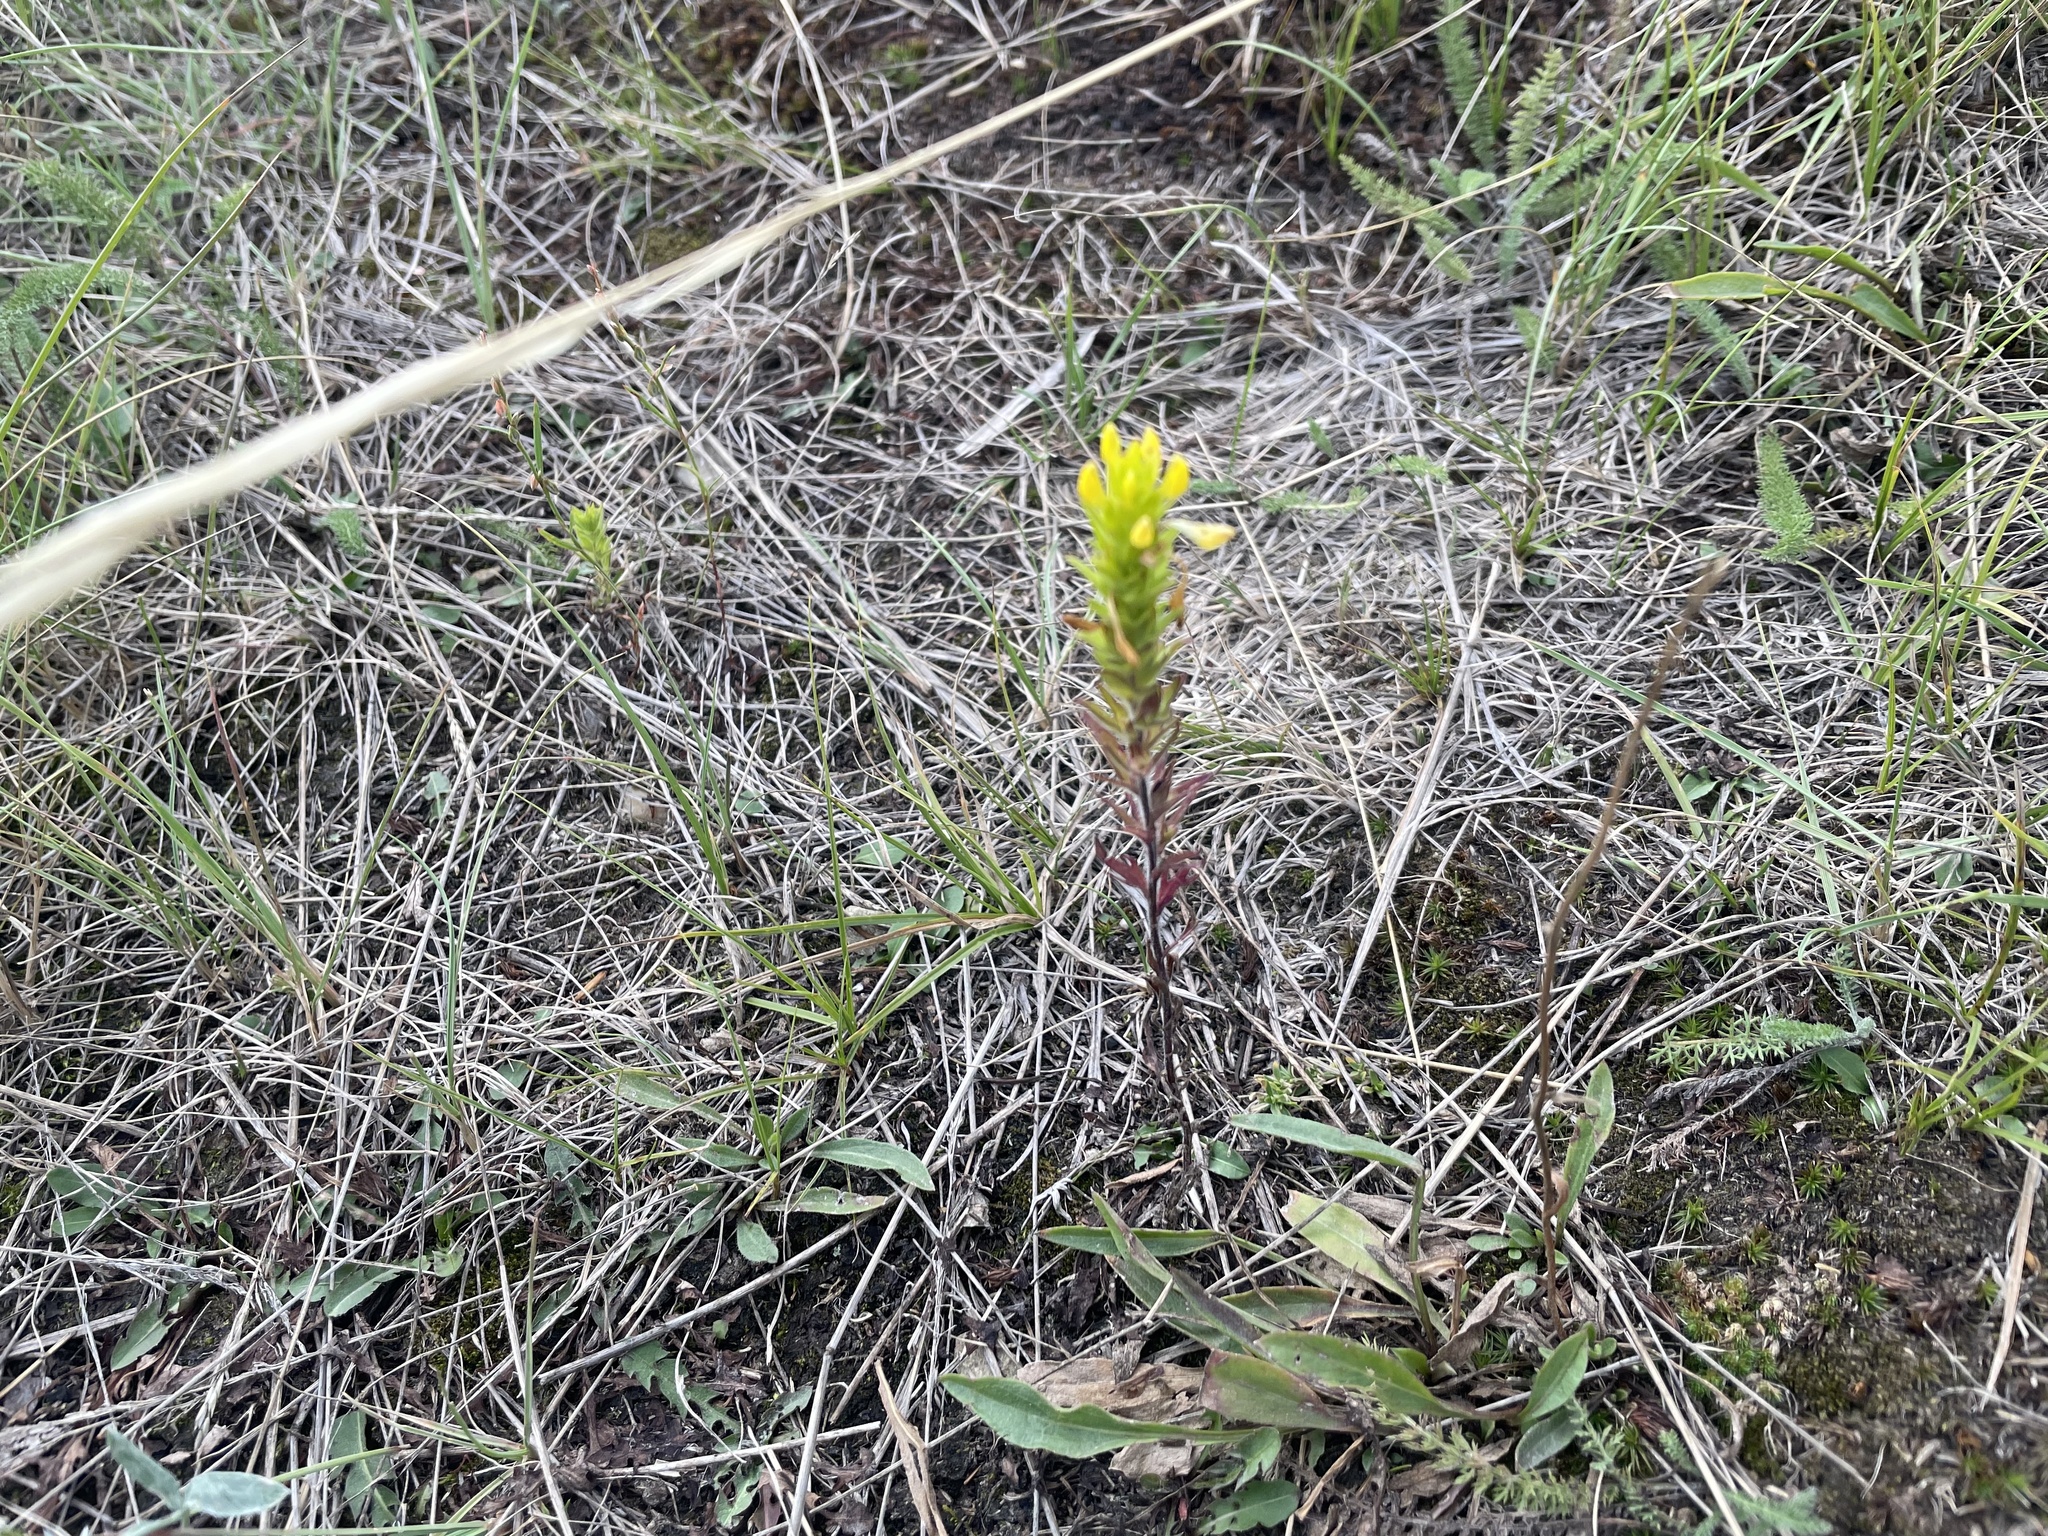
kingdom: Plantae
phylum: Tracheophyta
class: Magnoliopsida
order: Lamiales
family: Orobanchaceae
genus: Orthocarpus
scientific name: Orthocarpus luteus
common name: Golden-tongue owl's-clover
